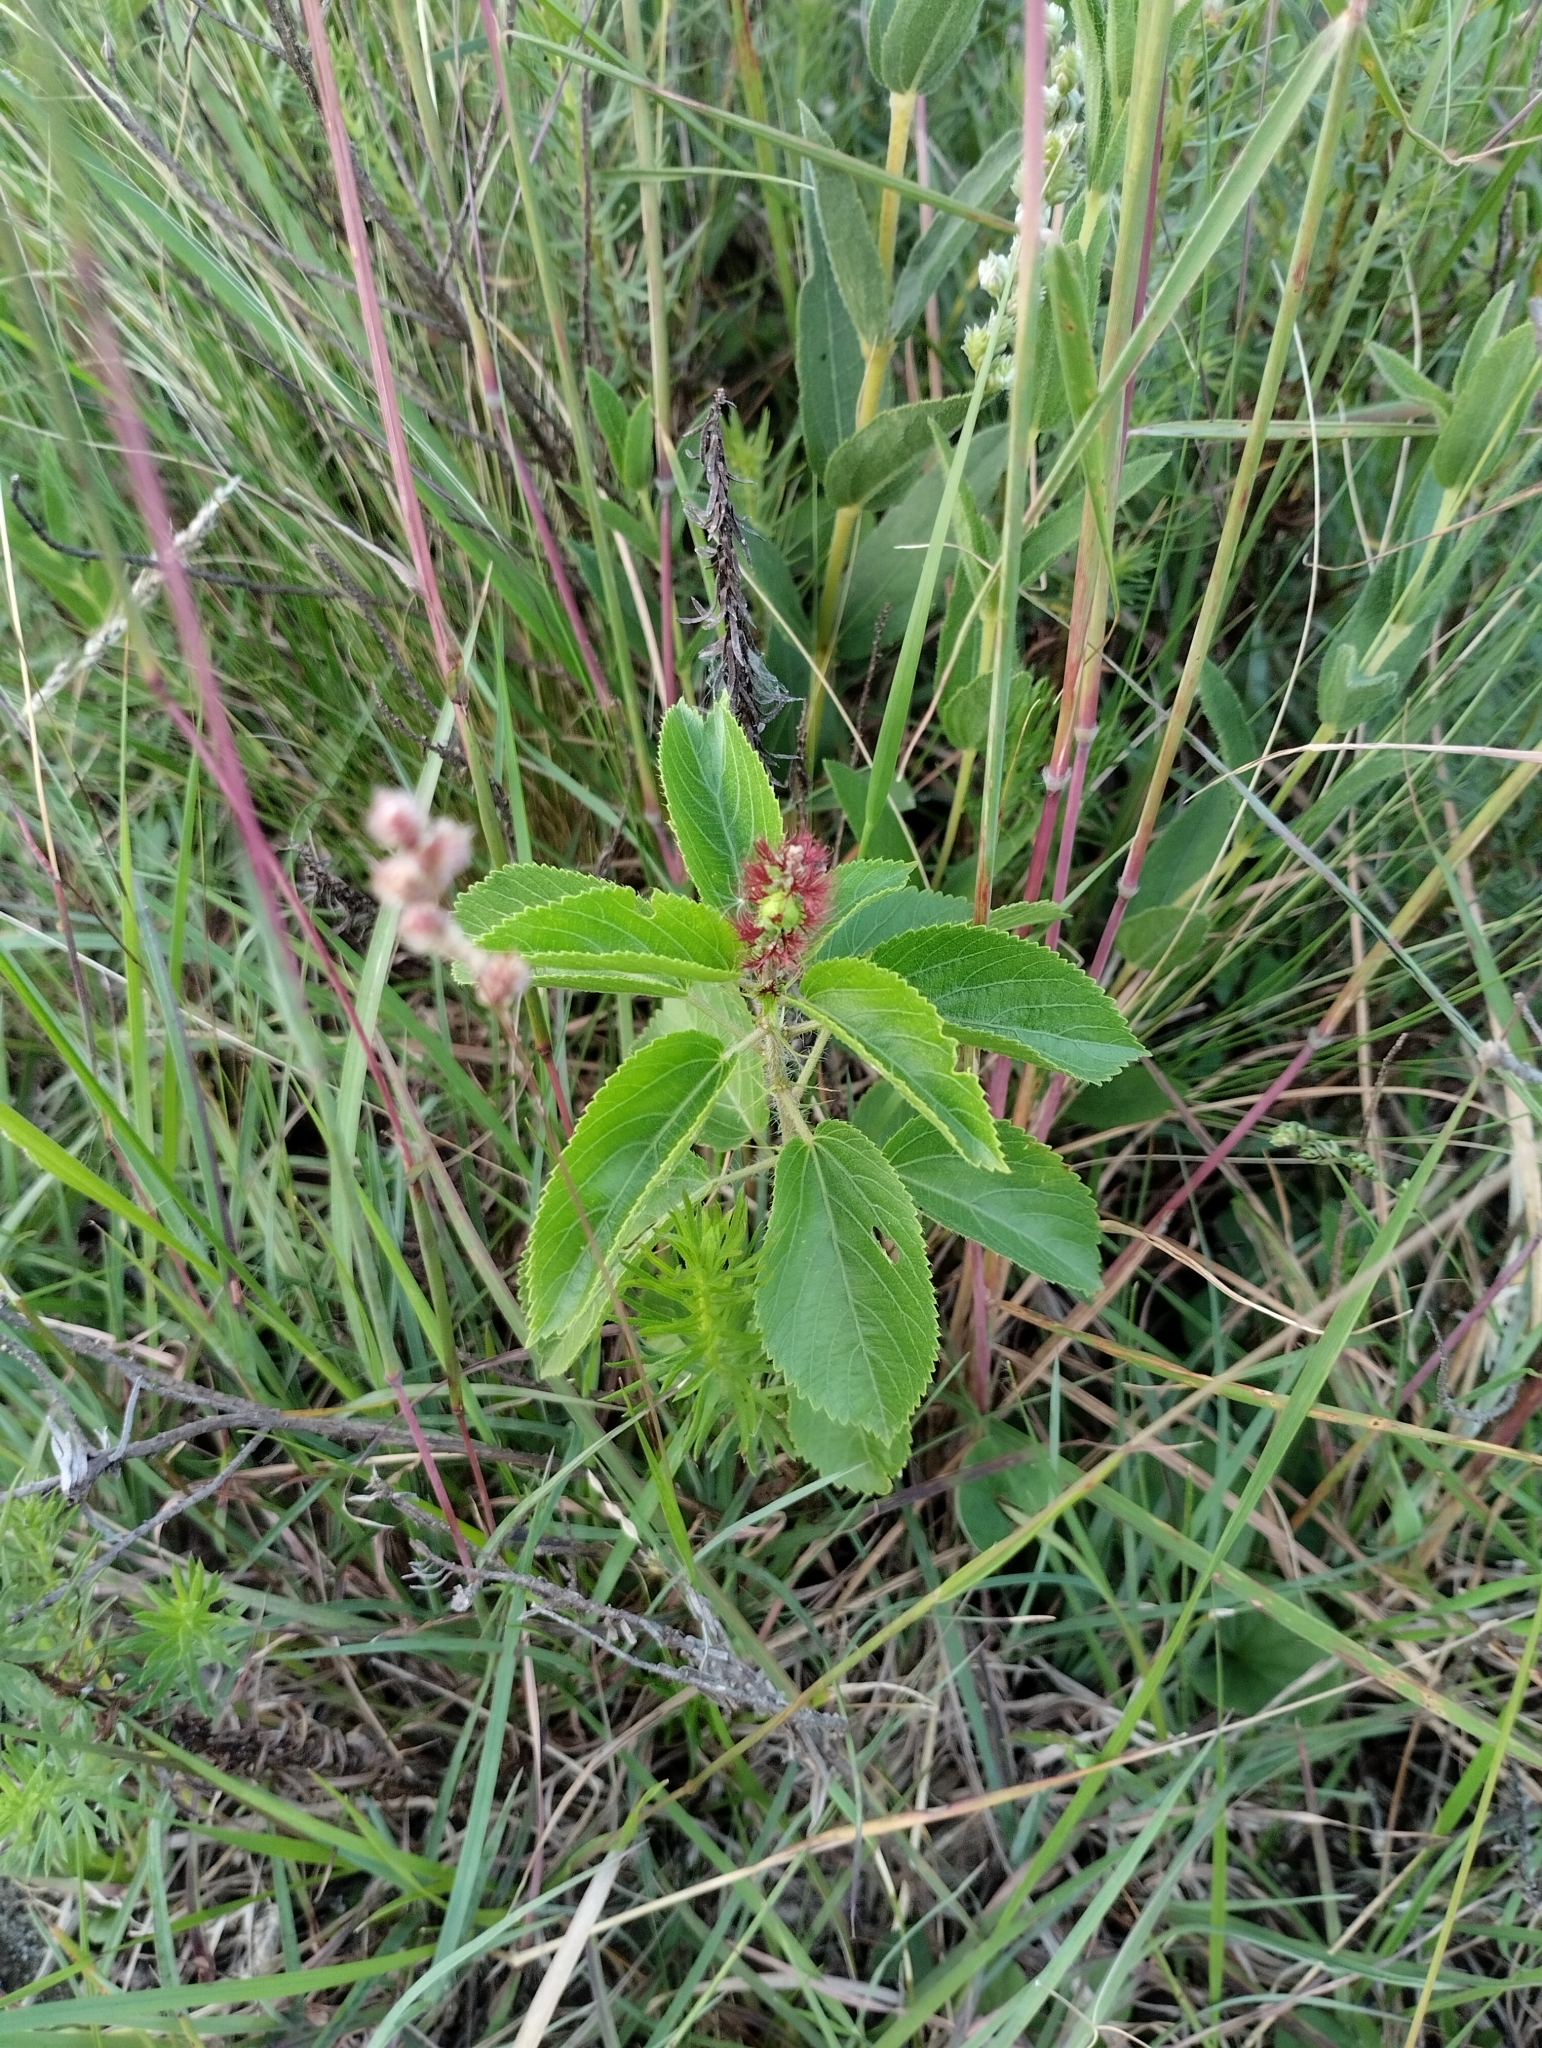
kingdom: Plantae
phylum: Tracheophyta
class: Magnoliopsida
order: Malpighiales
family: Euphorbiaceae
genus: Acalypha
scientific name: Acalypha communis
